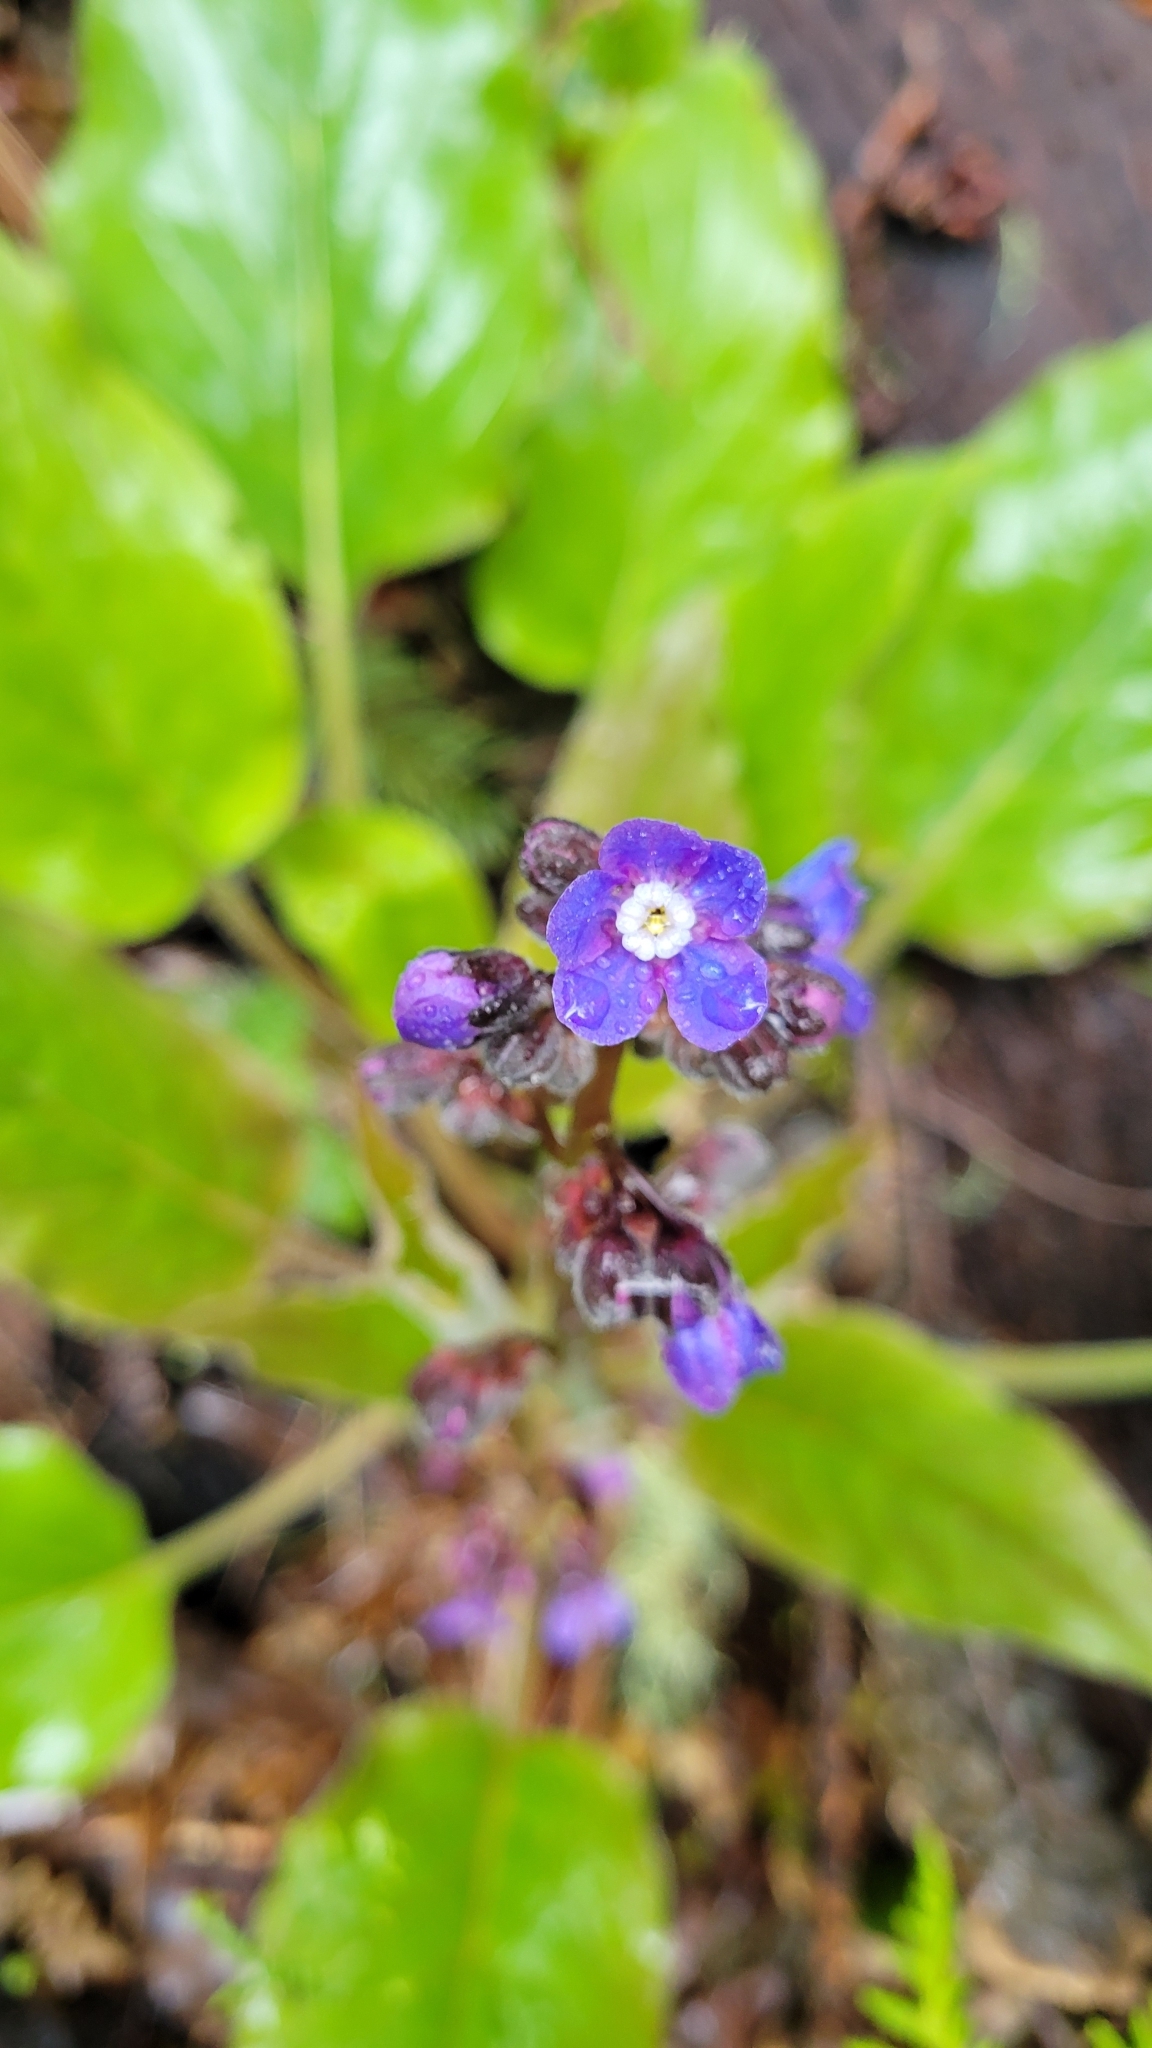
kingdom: Plantae
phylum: Tracheophyta
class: Magnoliopsida
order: Boraginales
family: Boraginaceae
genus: Adelinia
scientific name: Adelinia grande
